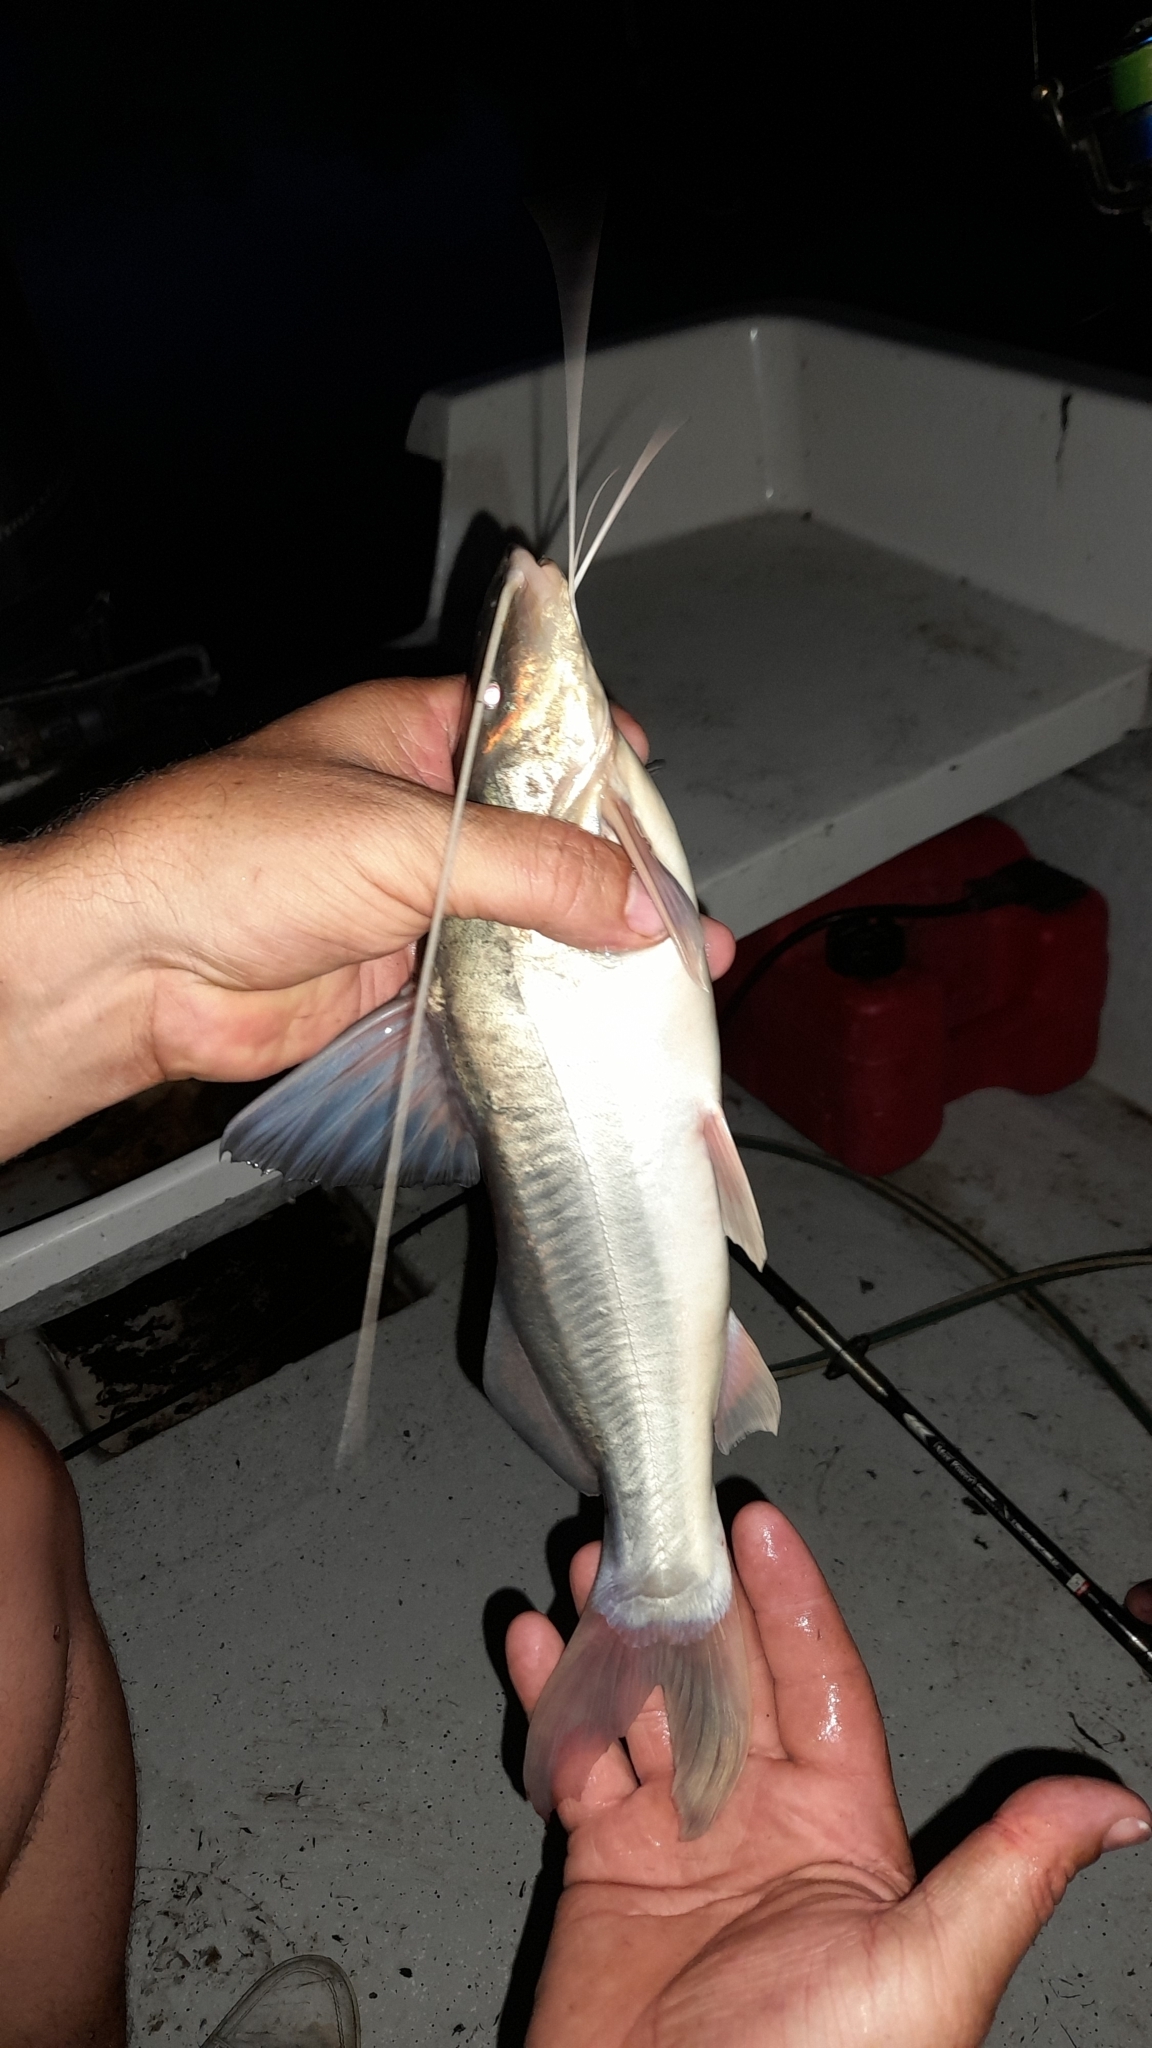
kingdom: Animalia
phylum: Chordata
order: Siluriformes
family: Pimelodidae
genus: Pimelodus
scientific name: Pimelodus albicans
